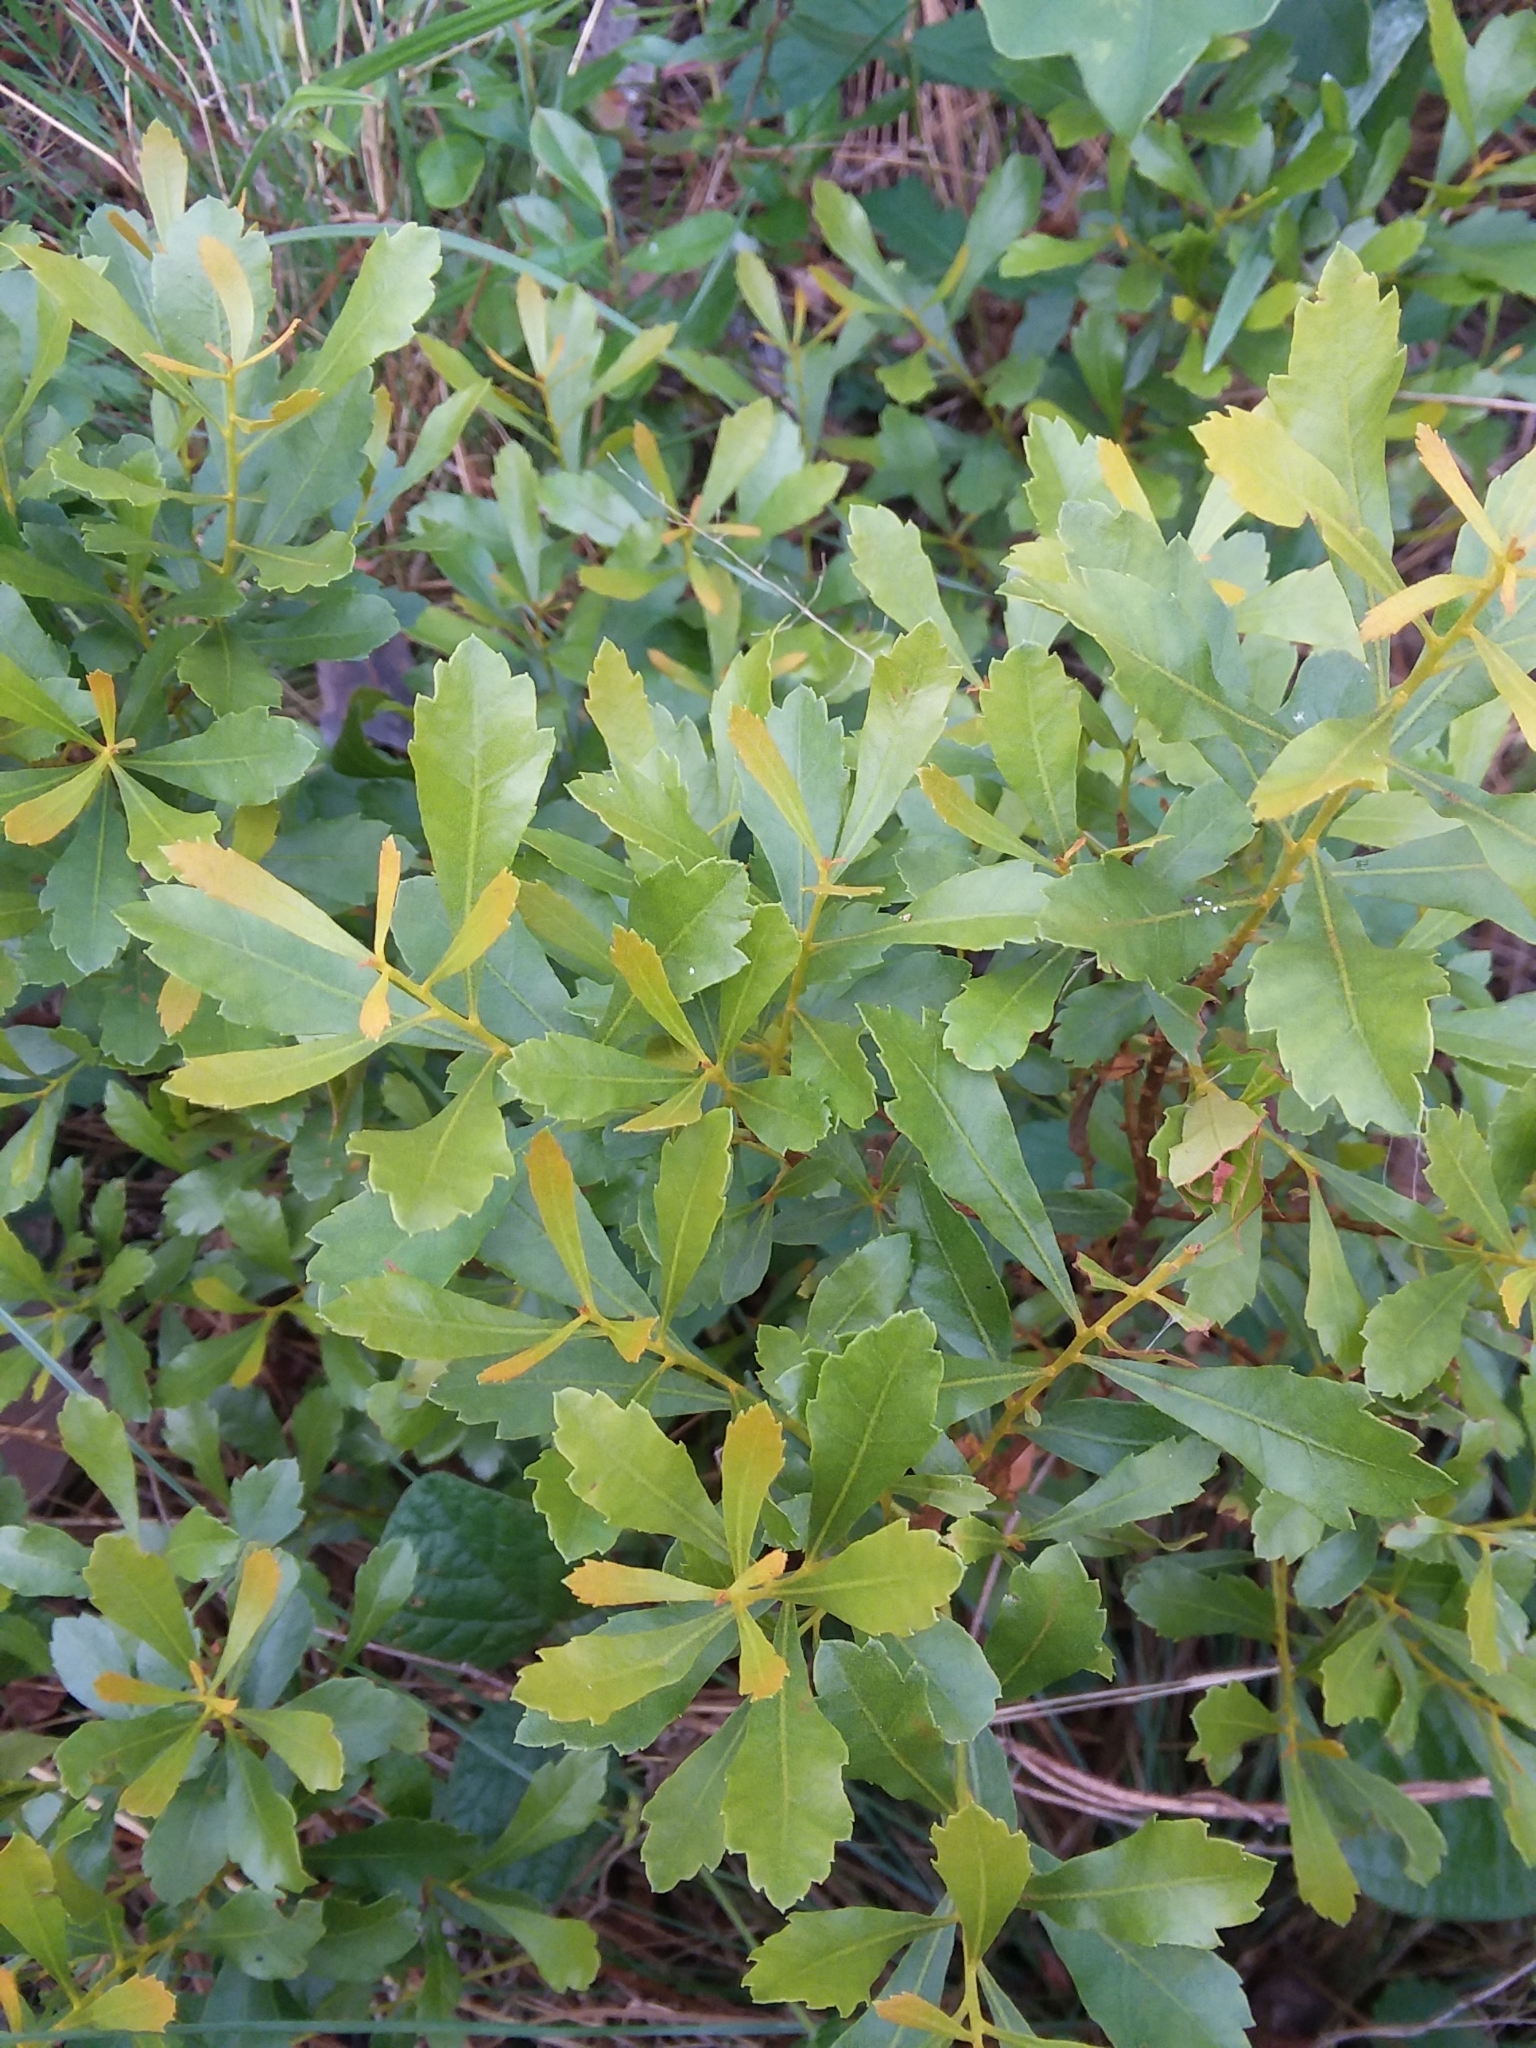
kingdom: Plantae
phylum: Tracheophyta
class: Magnoliopsida
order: Fagales
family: Myricaceae
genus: Morella
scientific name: Morella cerifera
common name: Wax myrtle
